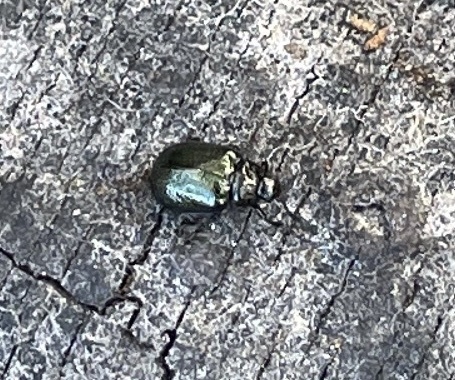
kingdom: Animalia
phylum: Arthropoda
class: Insecta
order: Coleoptera
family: Chrysomelidae
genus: Plagiodera
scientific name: Plagiodera californica
